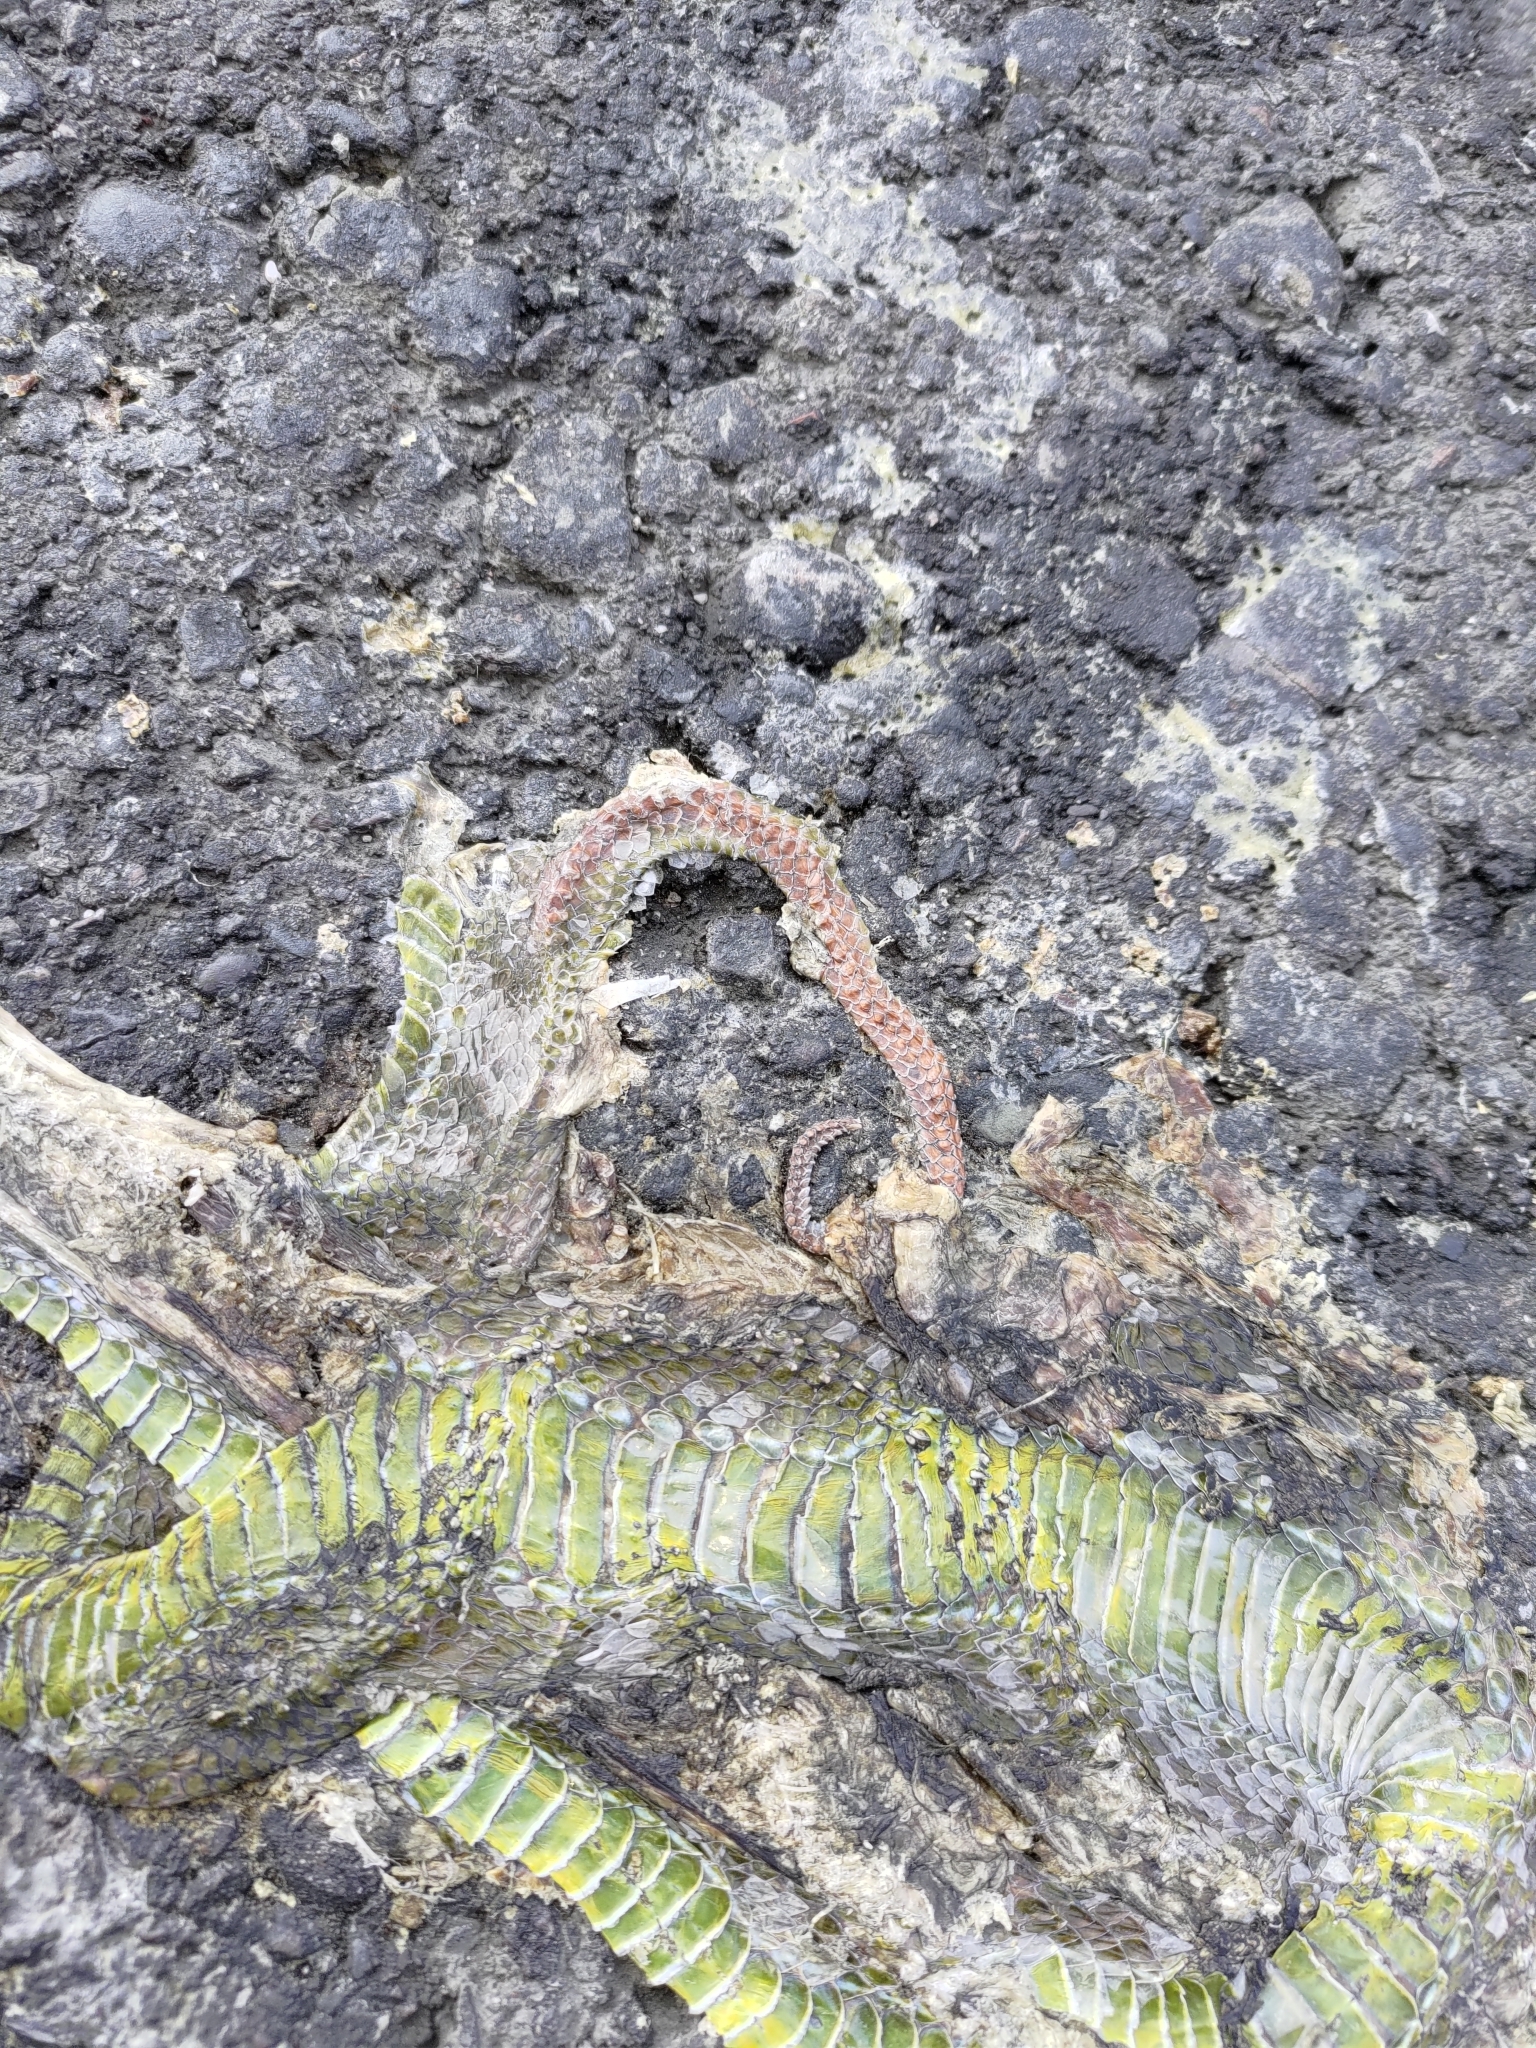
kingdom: Animalia
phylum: Chordata
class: Squamata
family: Viperidae
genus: Trimeresurus
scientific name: Trimeresurus stejnegeri
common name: Chen’s bamboo pit viper
